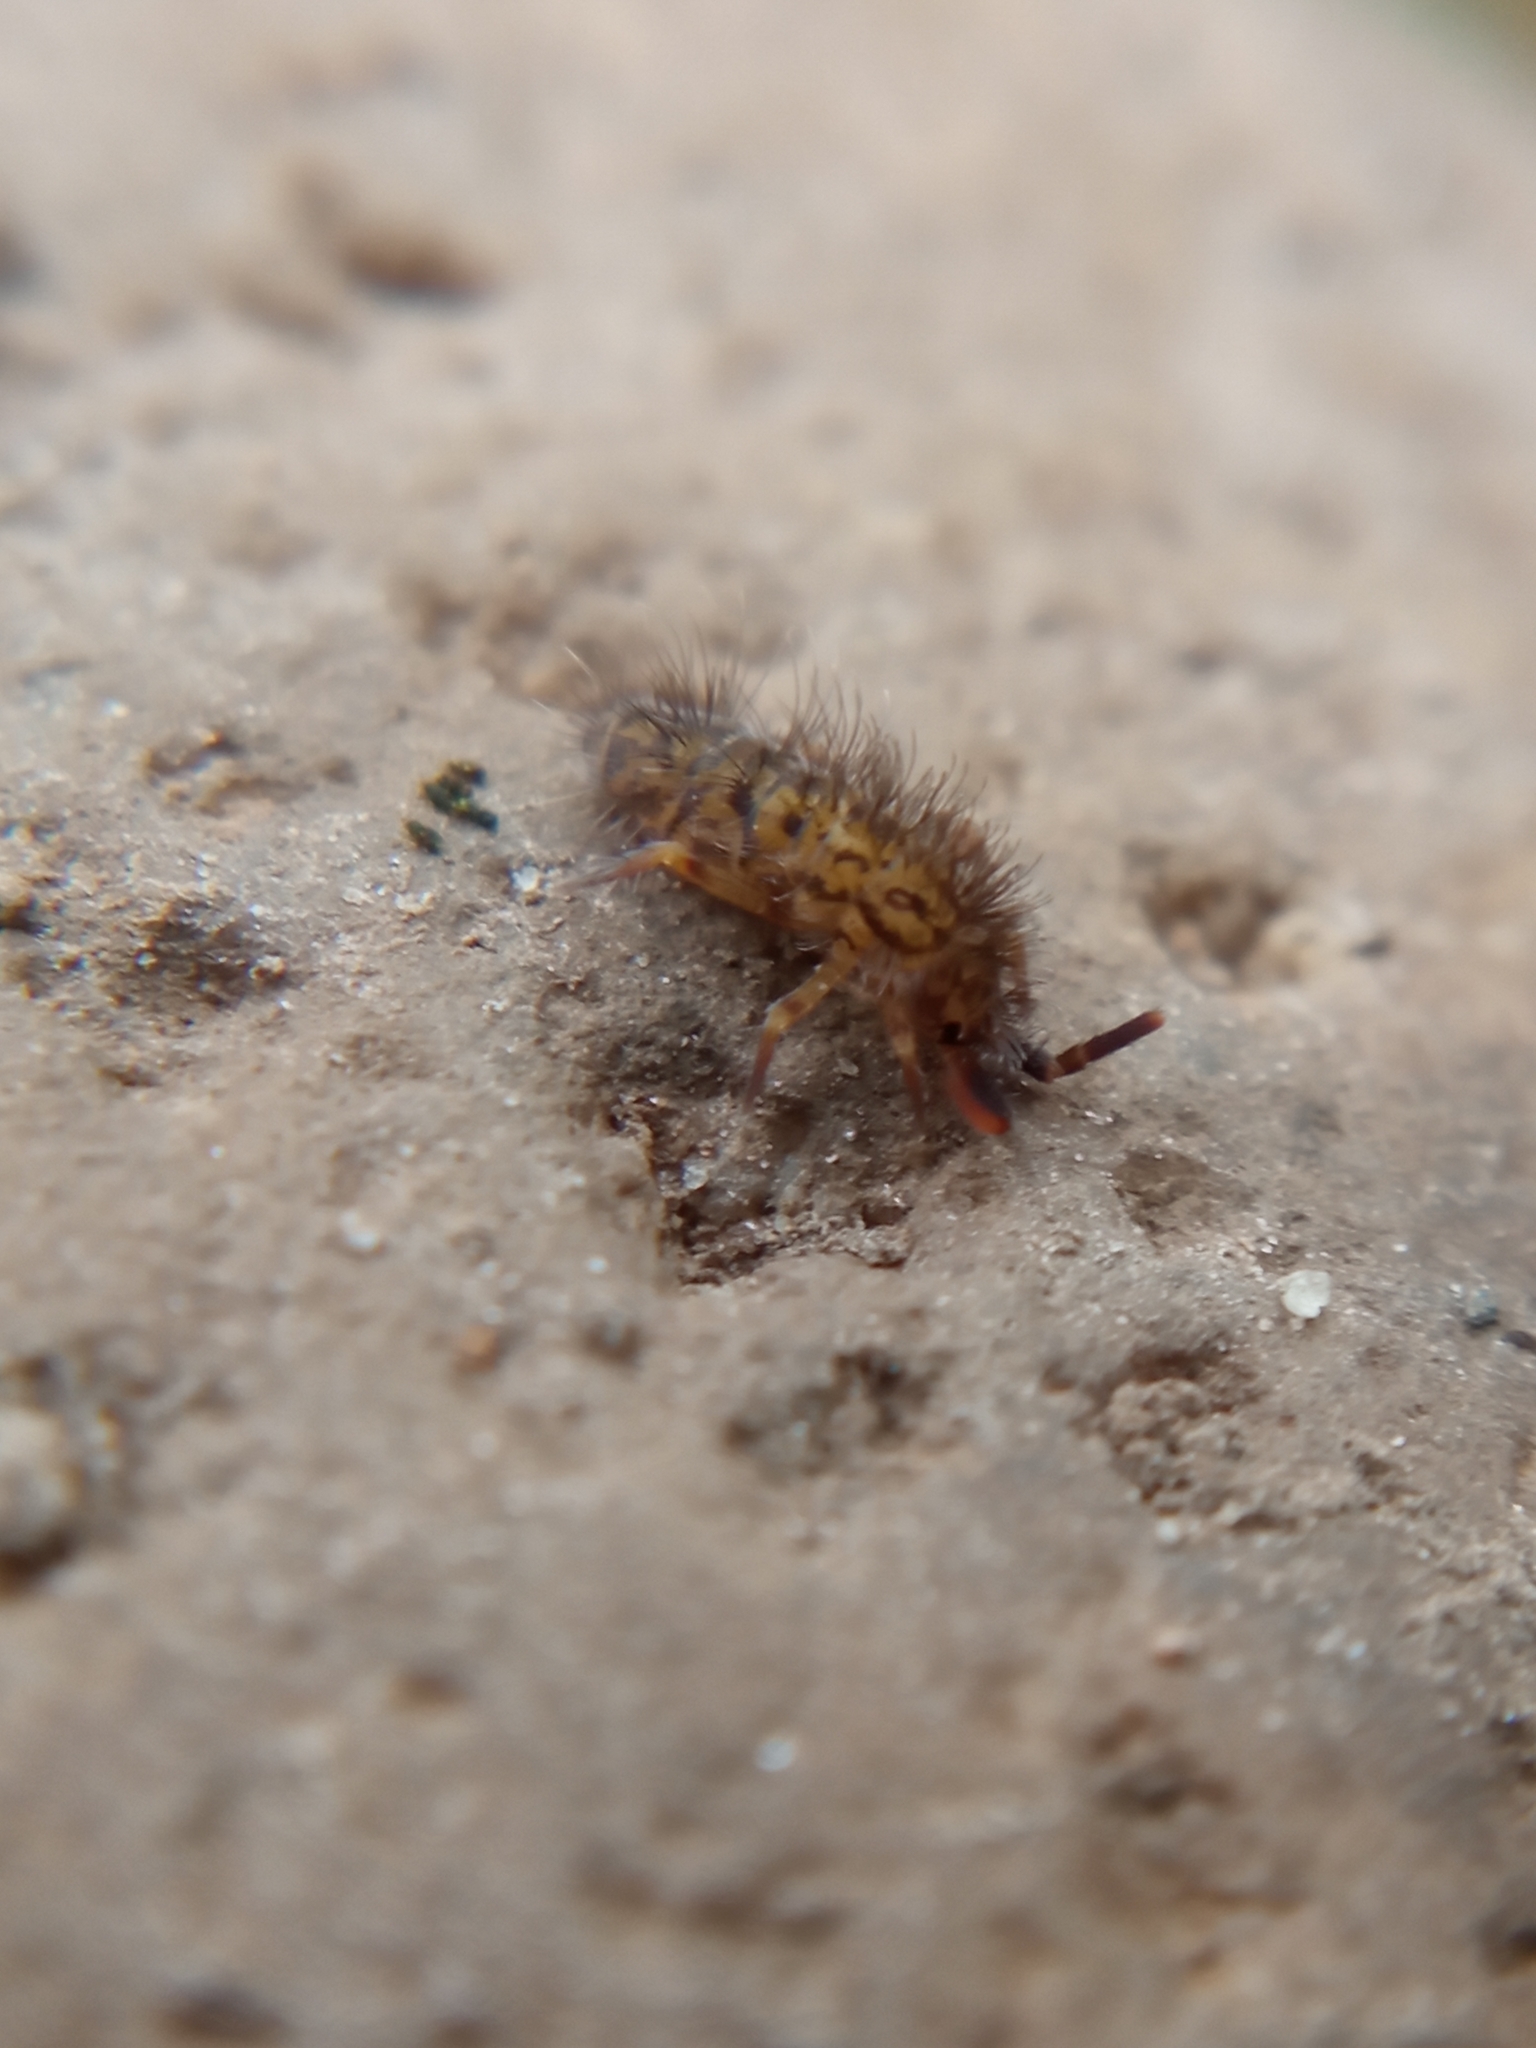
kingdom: Animalia
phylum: Arthropoda
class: Collembola
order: Entomobryomorpha
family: Orchesellidae
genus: Orchesella
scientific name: Orchesella villosa
